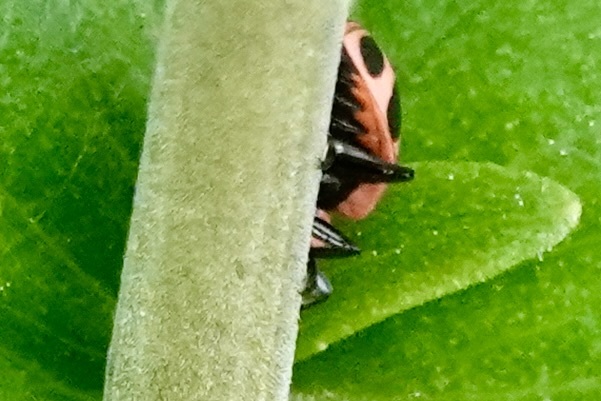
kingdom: Animalia
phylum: Arthropoda
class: Insecta
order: Coleoptera
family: Coccinellidae
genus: Coleomegilla
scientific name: Coleomegilla maculata
